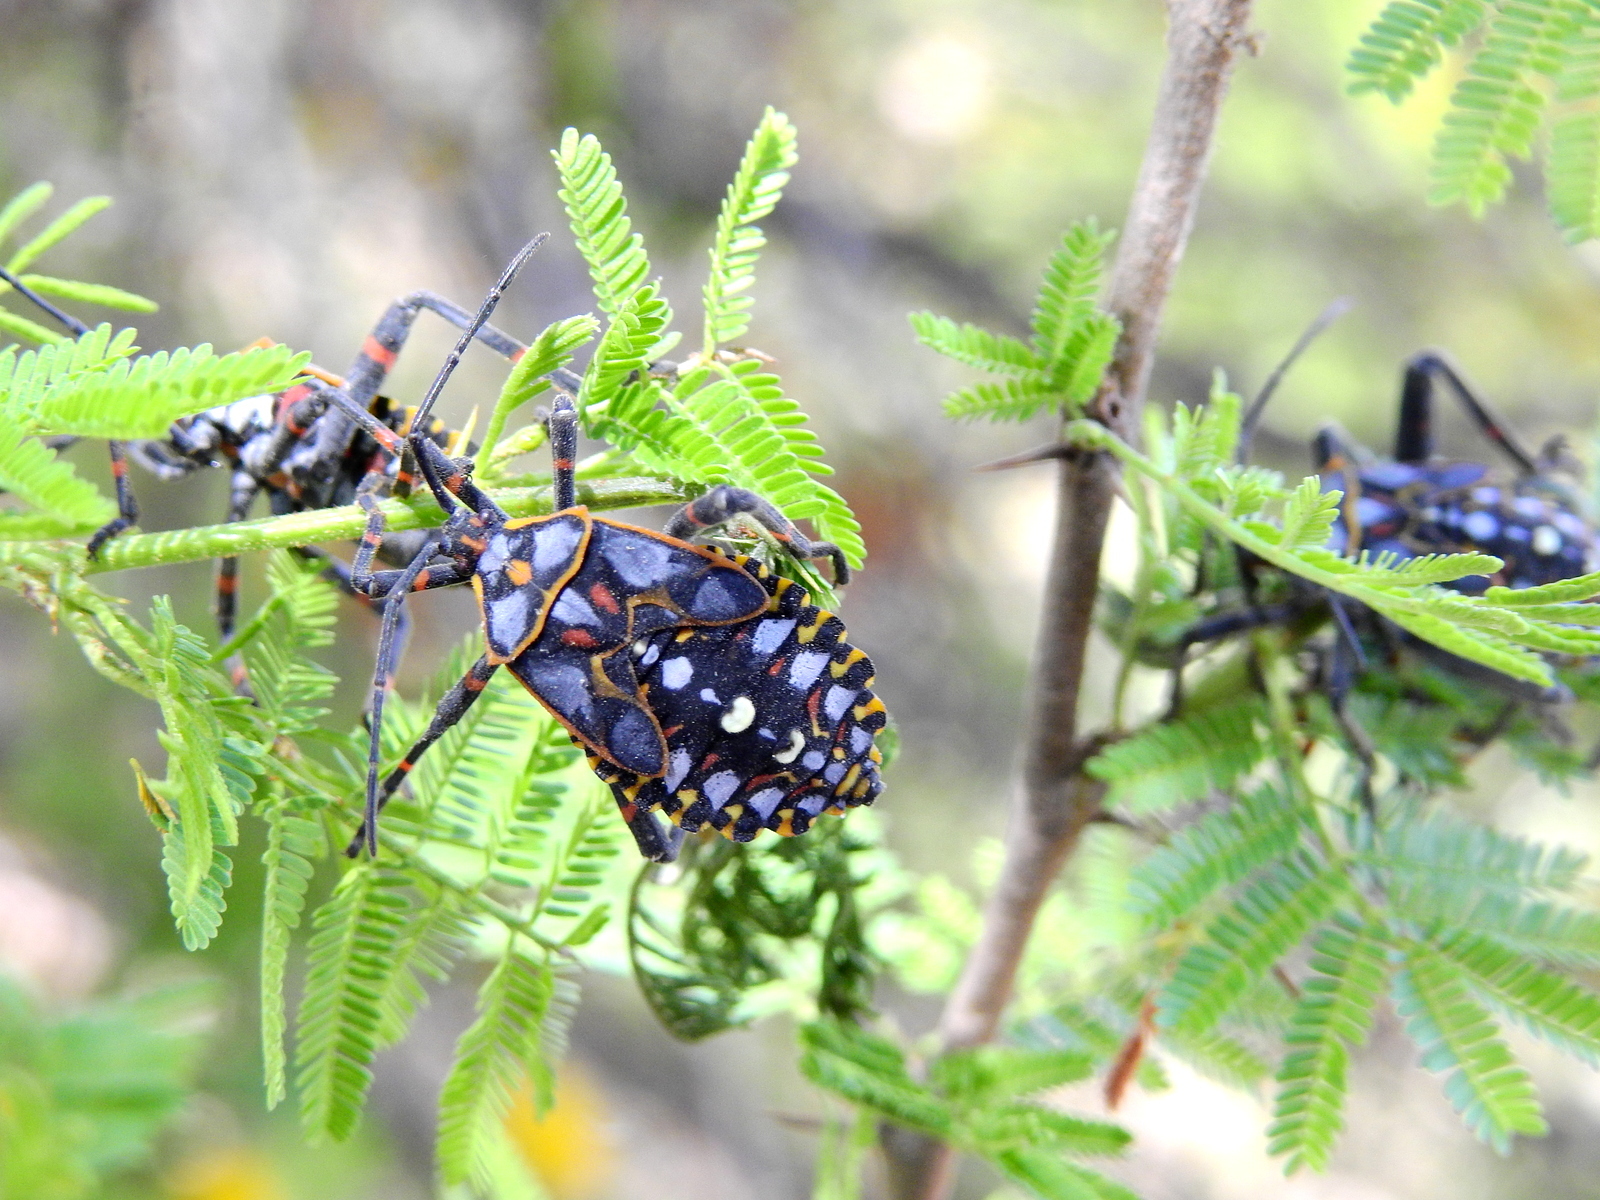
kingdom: Animalia
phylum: Arthropoda
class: Insecta
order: Hemiptera
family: Coreidae
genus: Pachylis
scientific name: Pachylis argentinus
